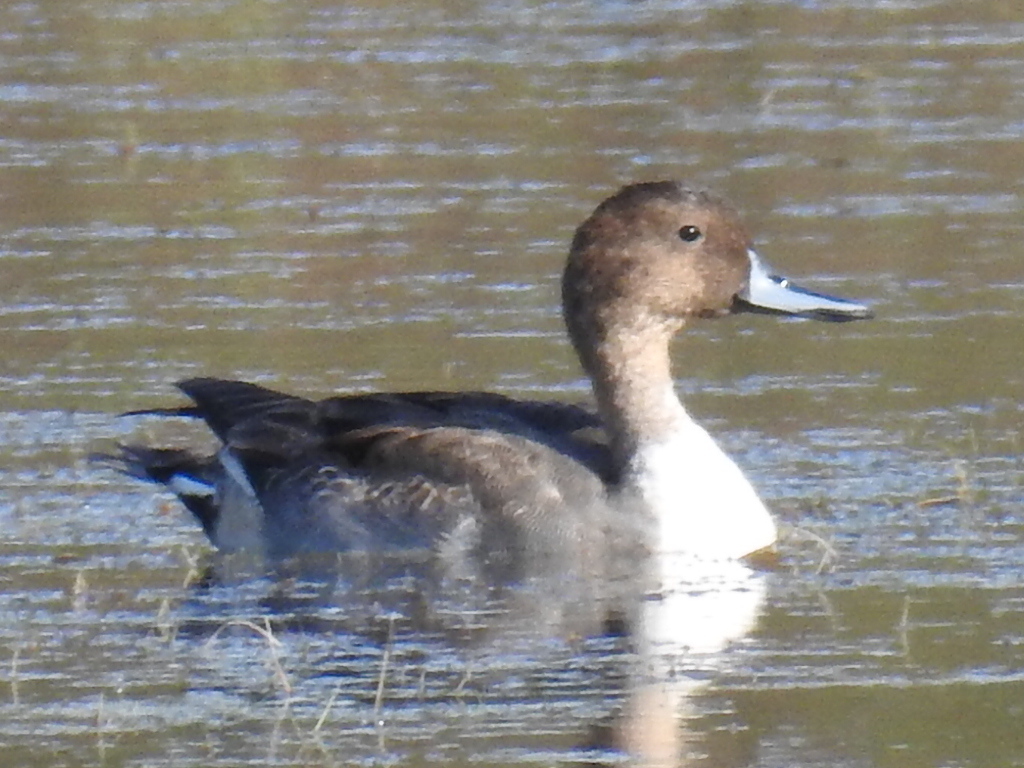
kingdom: Animalia
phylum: Chordata
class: Aves
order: Anseriformes
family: Anatidae
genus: Anas
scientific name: Anas acuta
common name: Northern pintail
